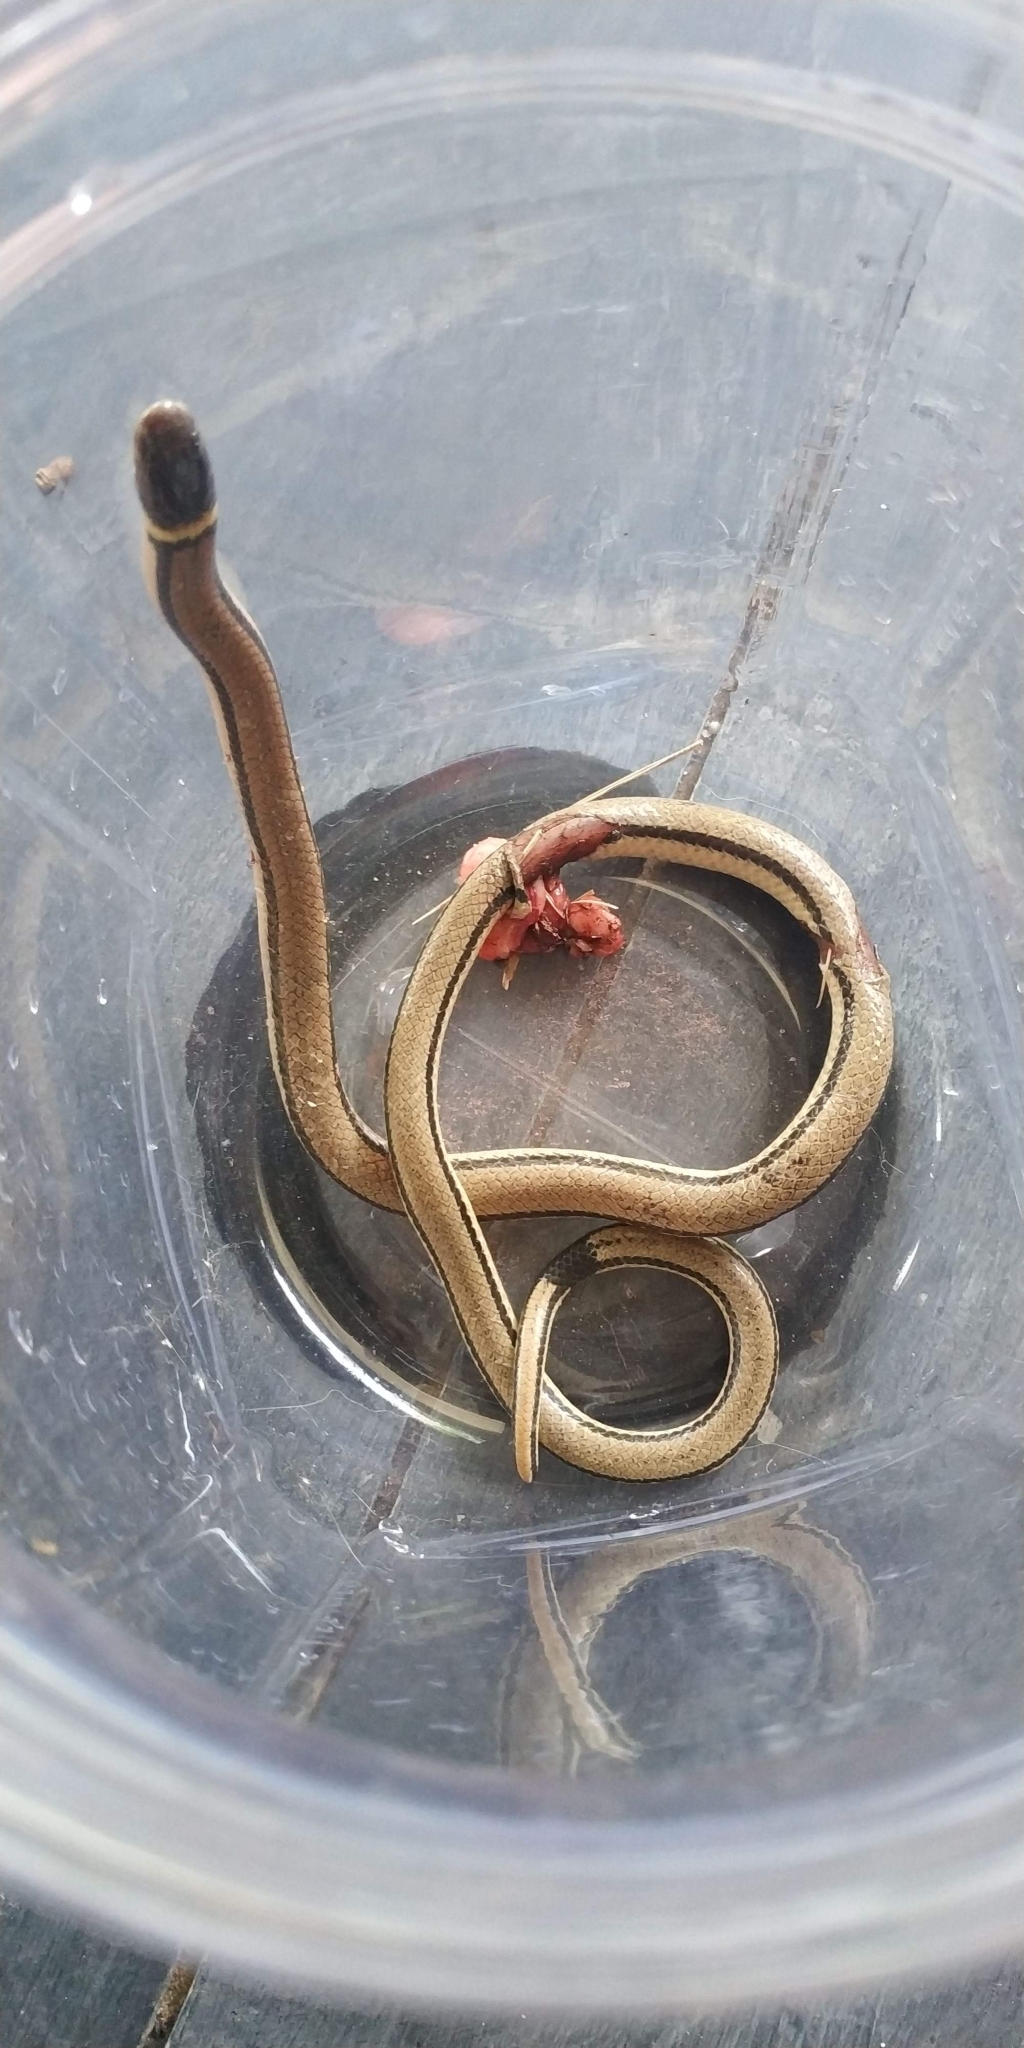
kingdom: Animalia
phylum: Chordata
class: Squamata
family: Colubridae
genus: Phalotris
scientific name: Phalotris lemniscatus
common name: Dumeril's diadem snake
